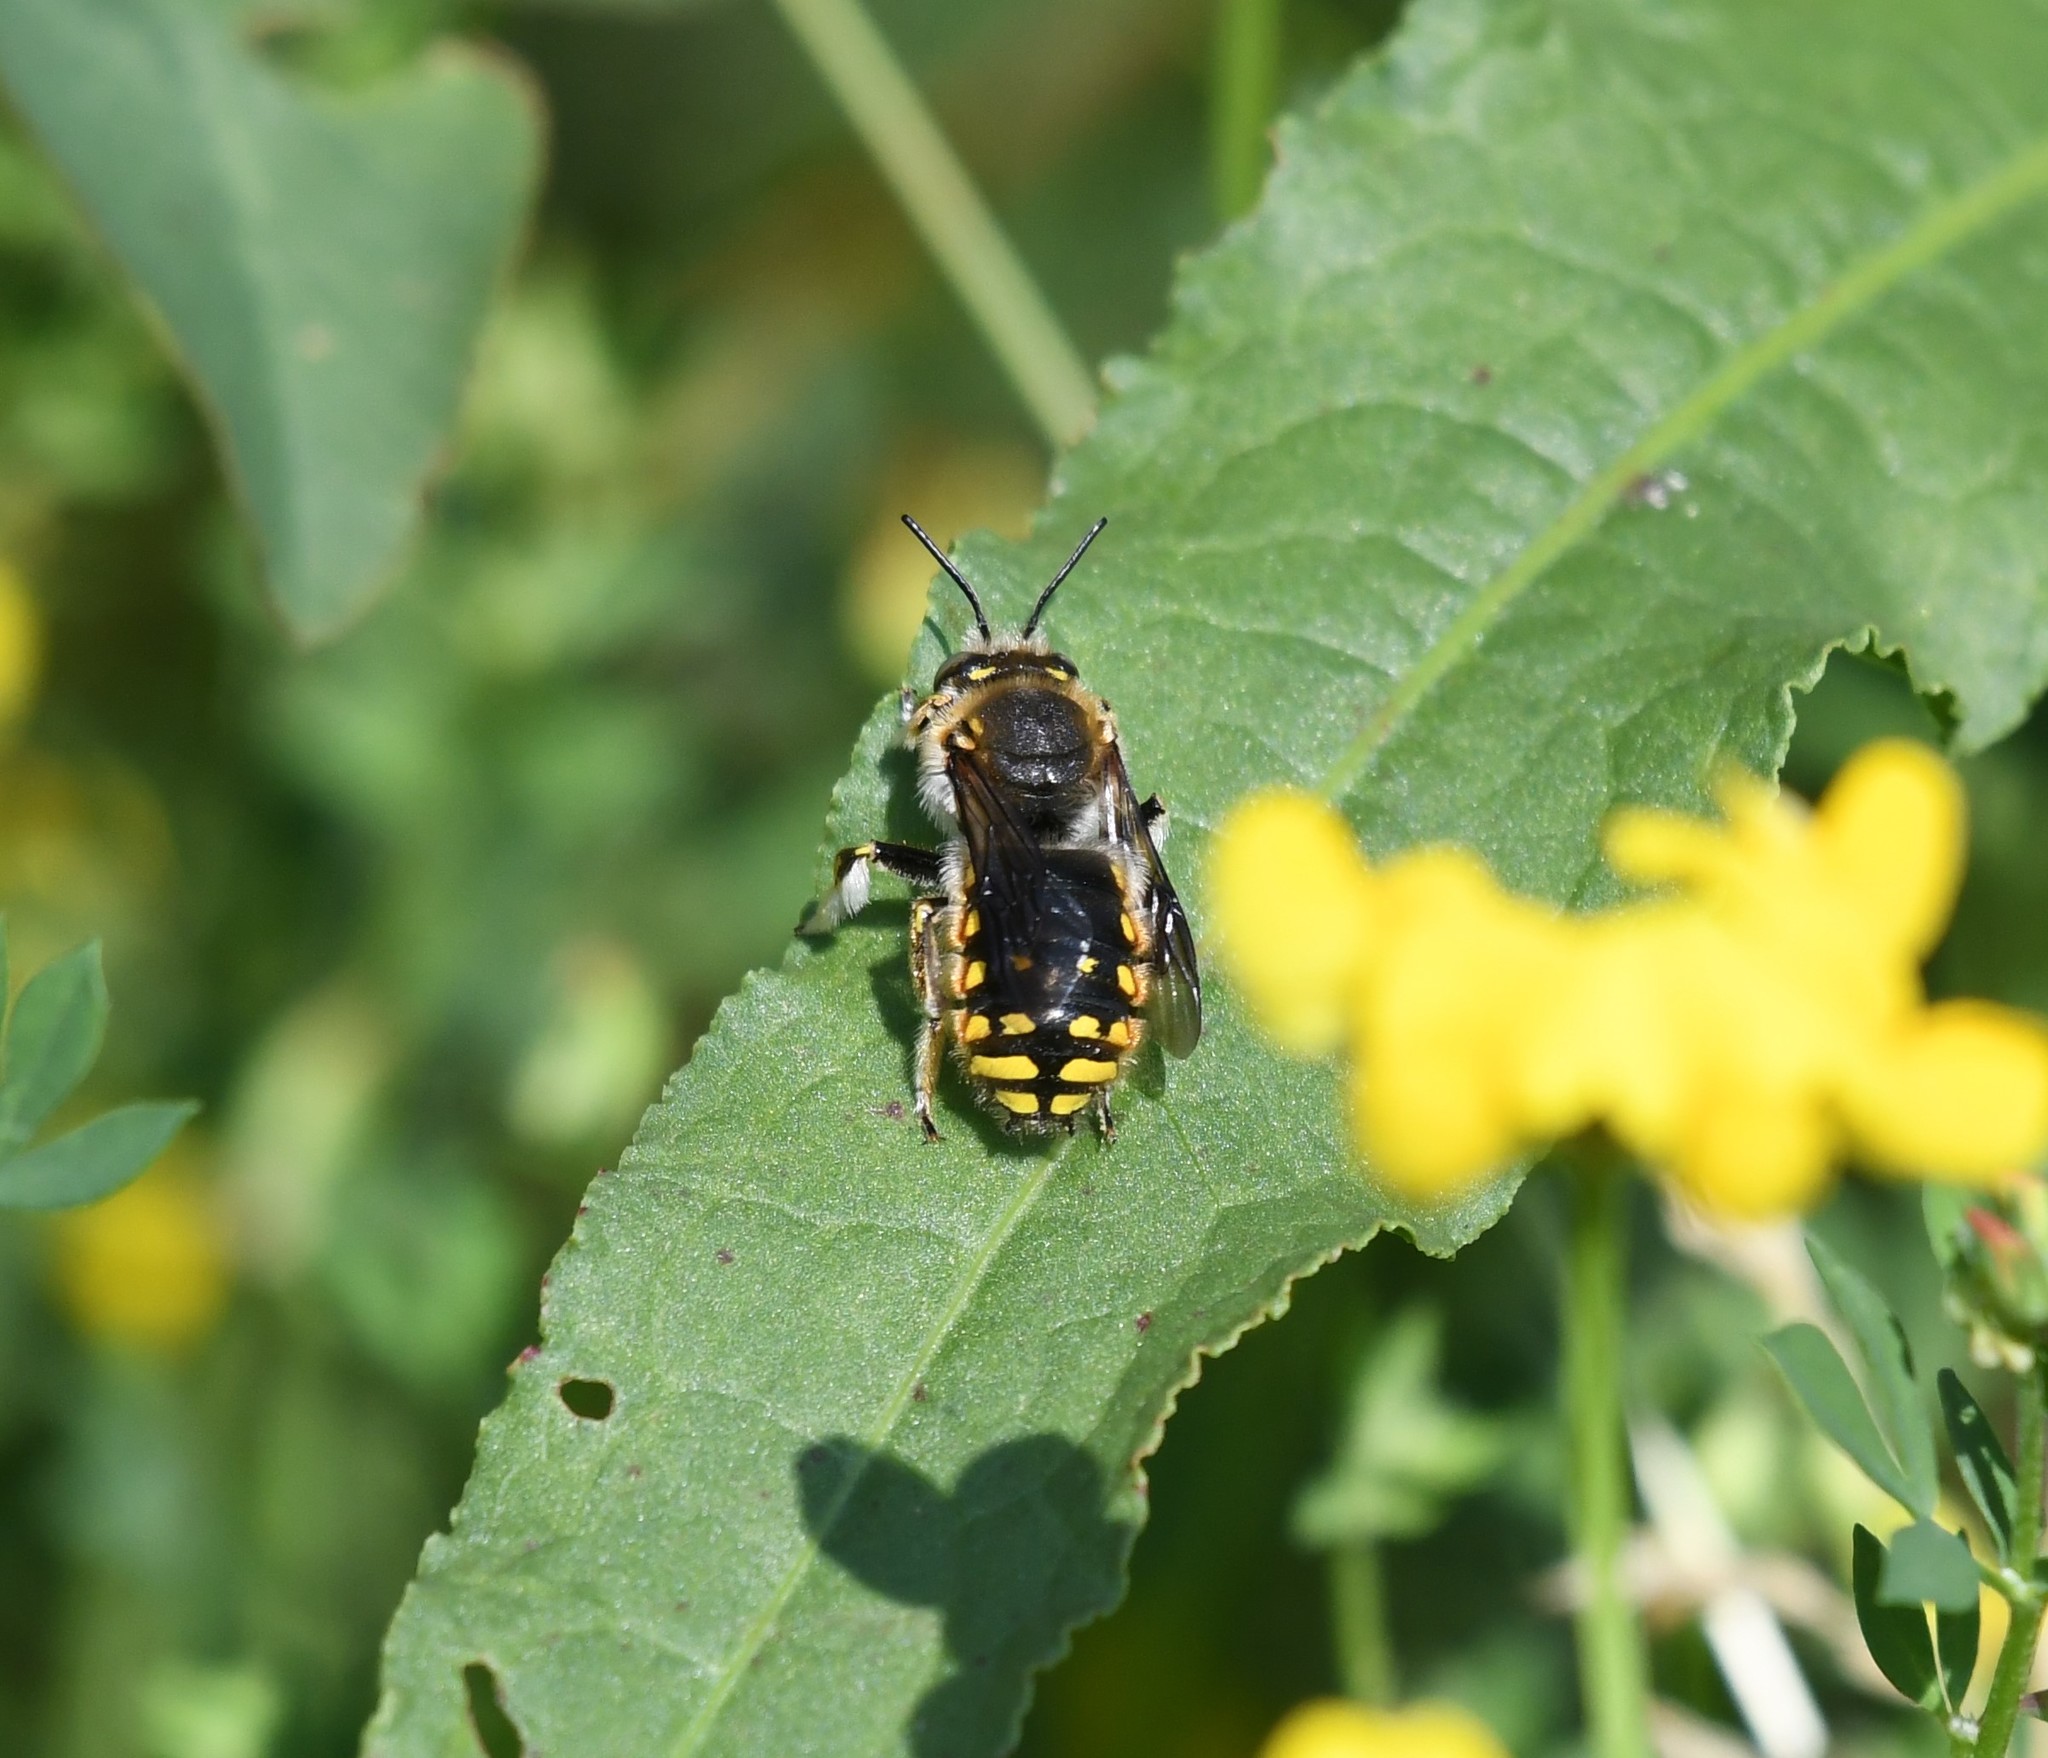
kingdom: Animalia
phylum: Arthropoda
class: Insecta
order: Hymenoptera
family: Megachilidae
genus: Anthidium
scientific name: Anthidium manicatum
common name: Wool carder bee
